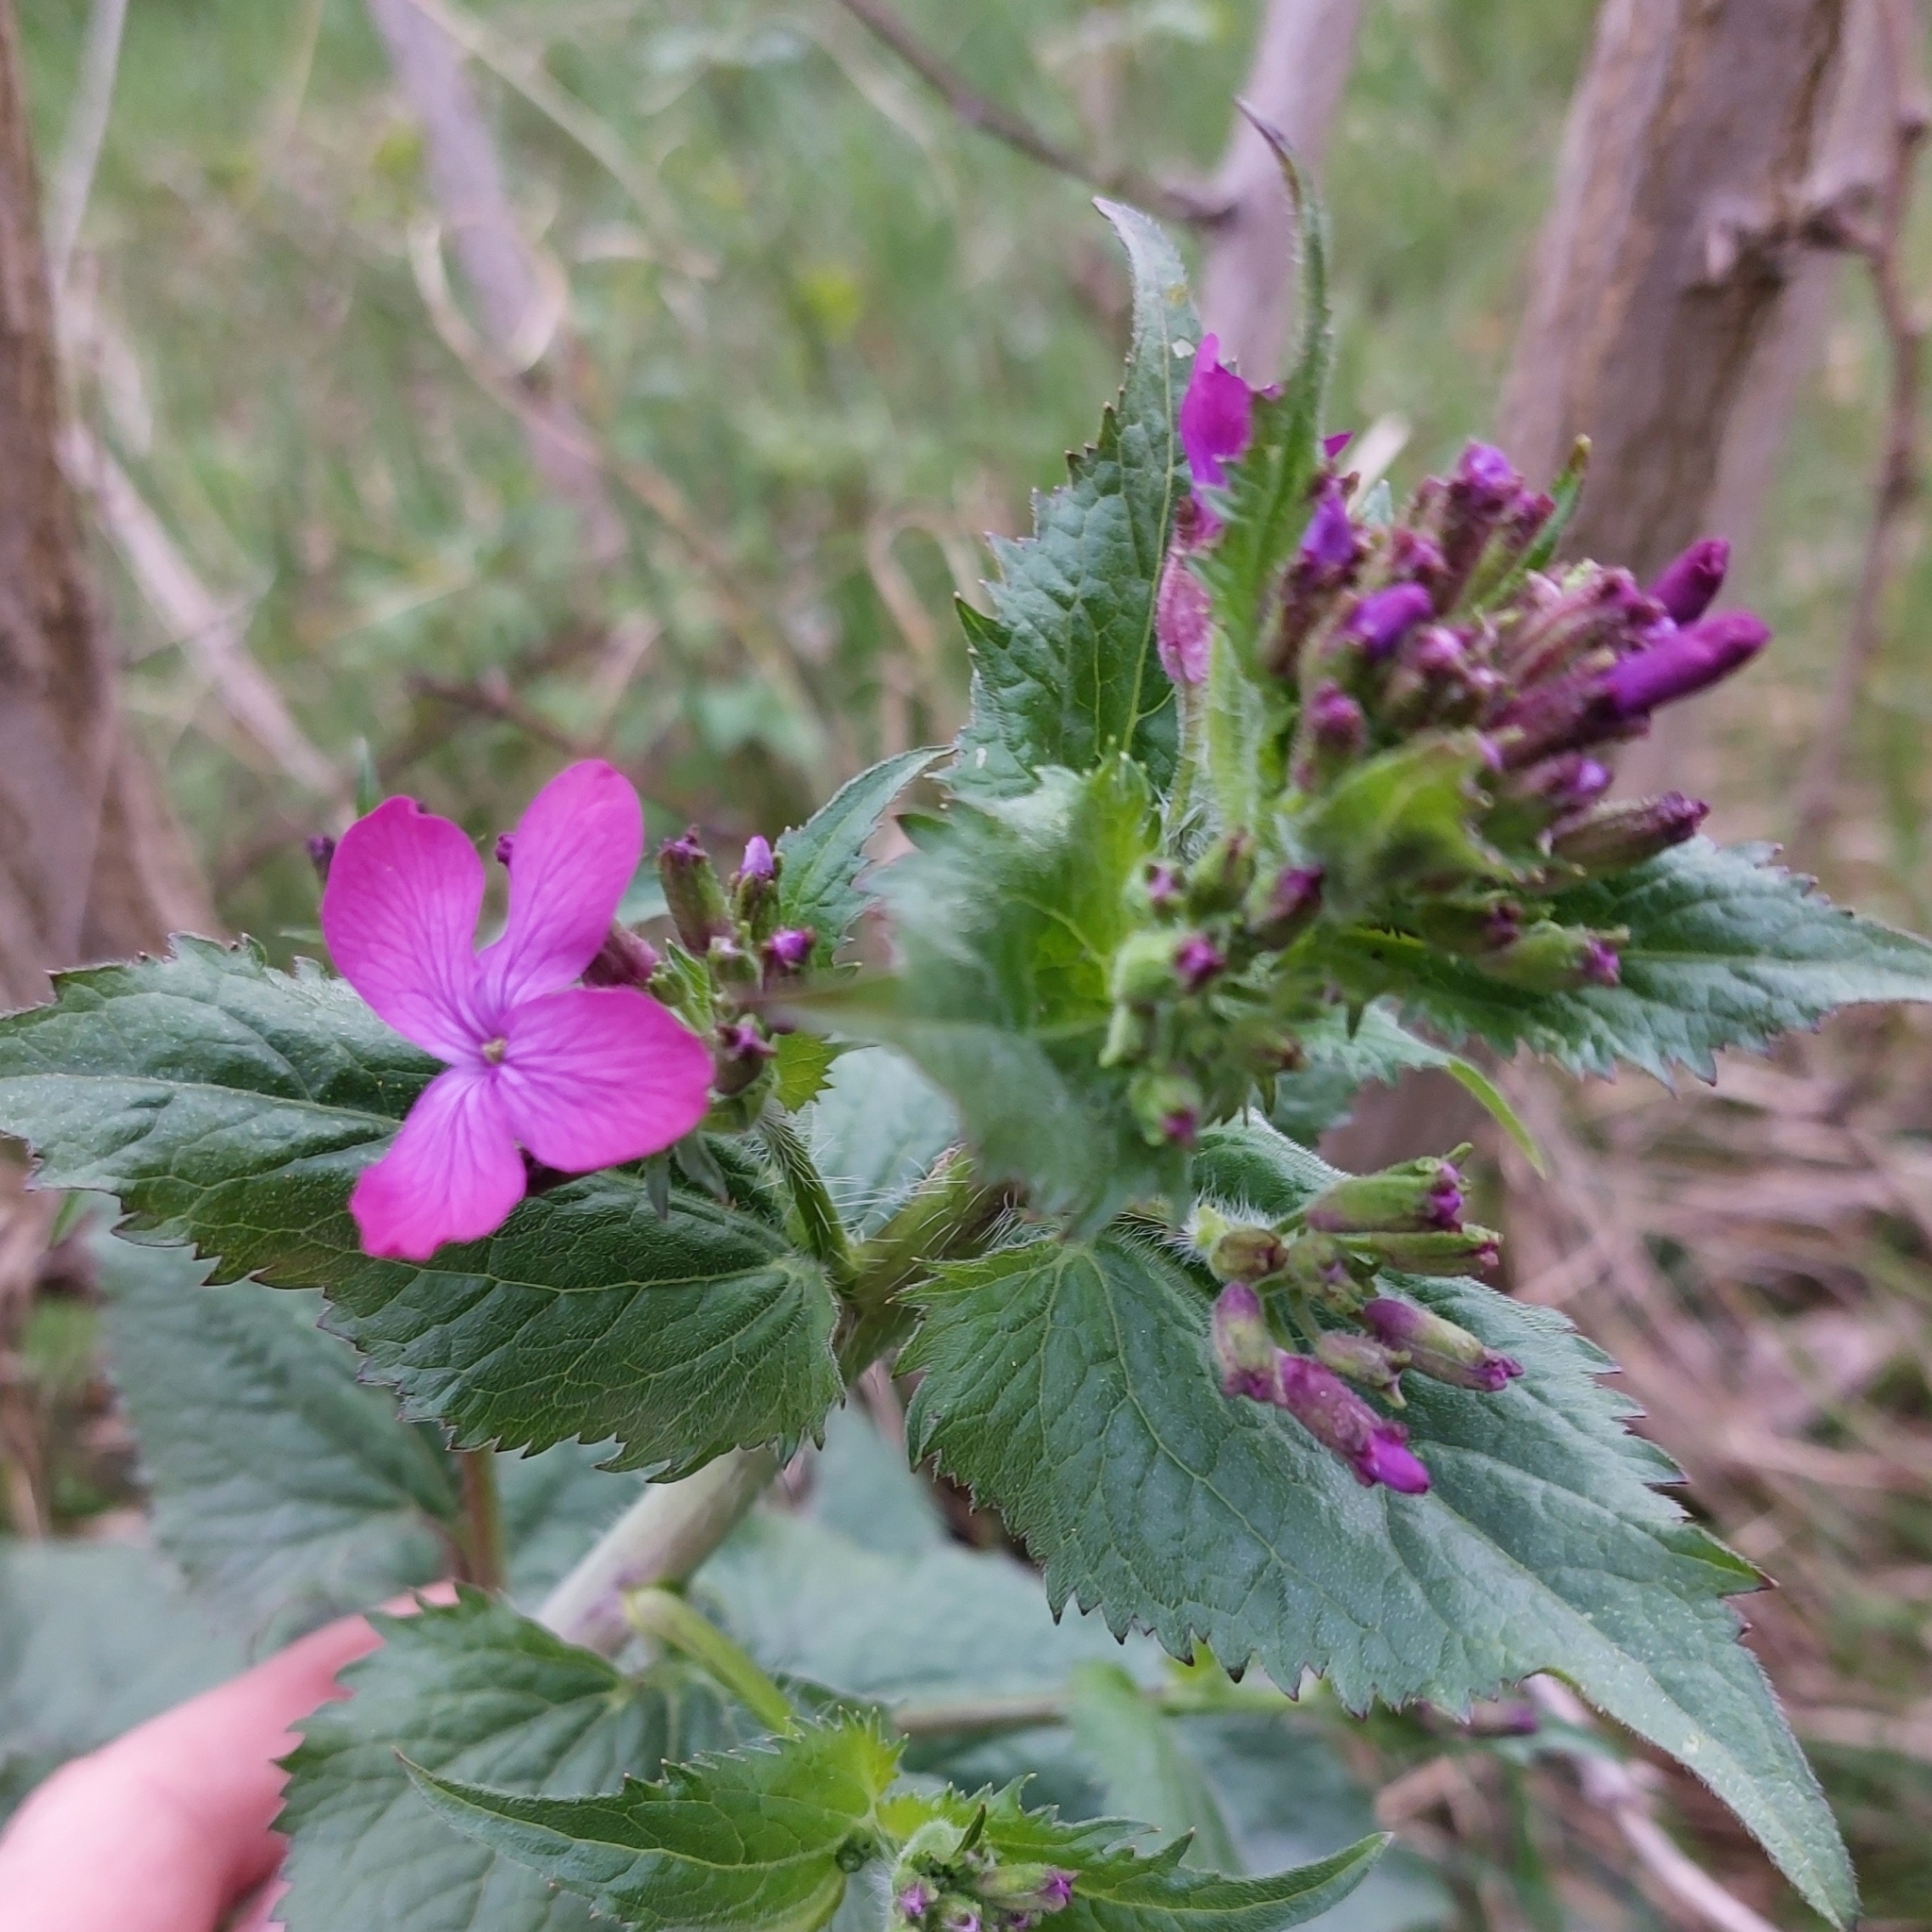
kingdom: Plantae
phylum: Tracheophyta
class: Magnoliopsida
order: Brassicales
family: Brassicaceae
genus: Lunaria
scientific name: Lunaria annua
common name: Honesty
